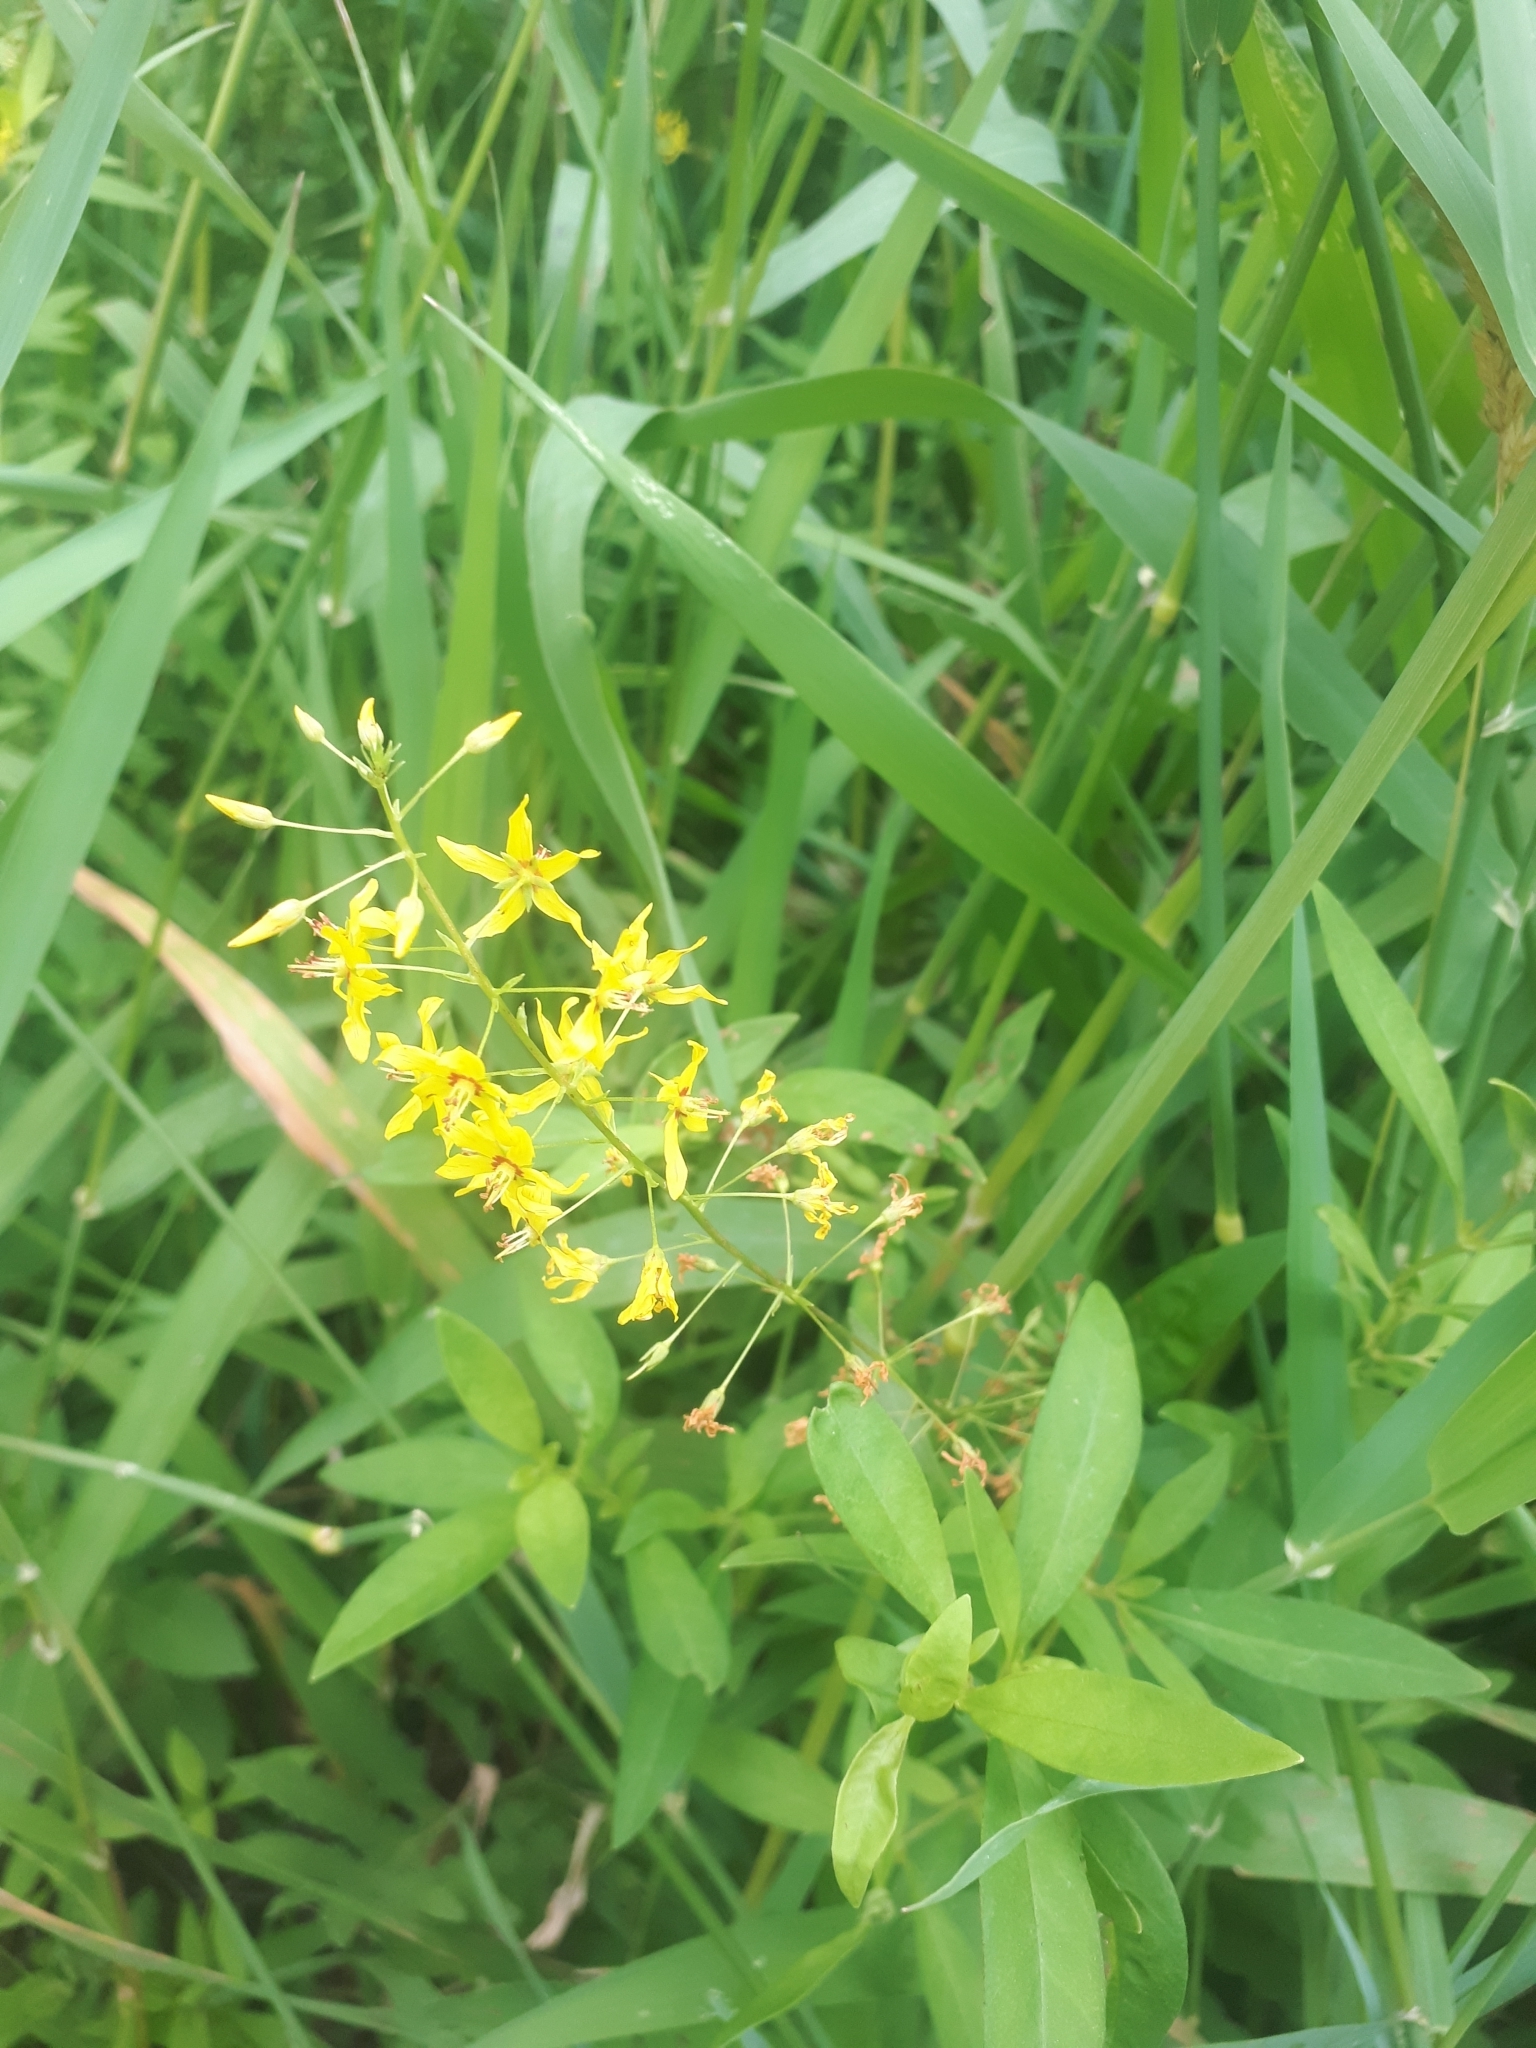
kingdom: Plantae
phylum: Tracheophyta
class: Magnoliopsida
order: Ericales
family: Primulaceae
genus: Lysimachia
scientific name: Lysimachia terrestris
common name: Lake loosestrife
